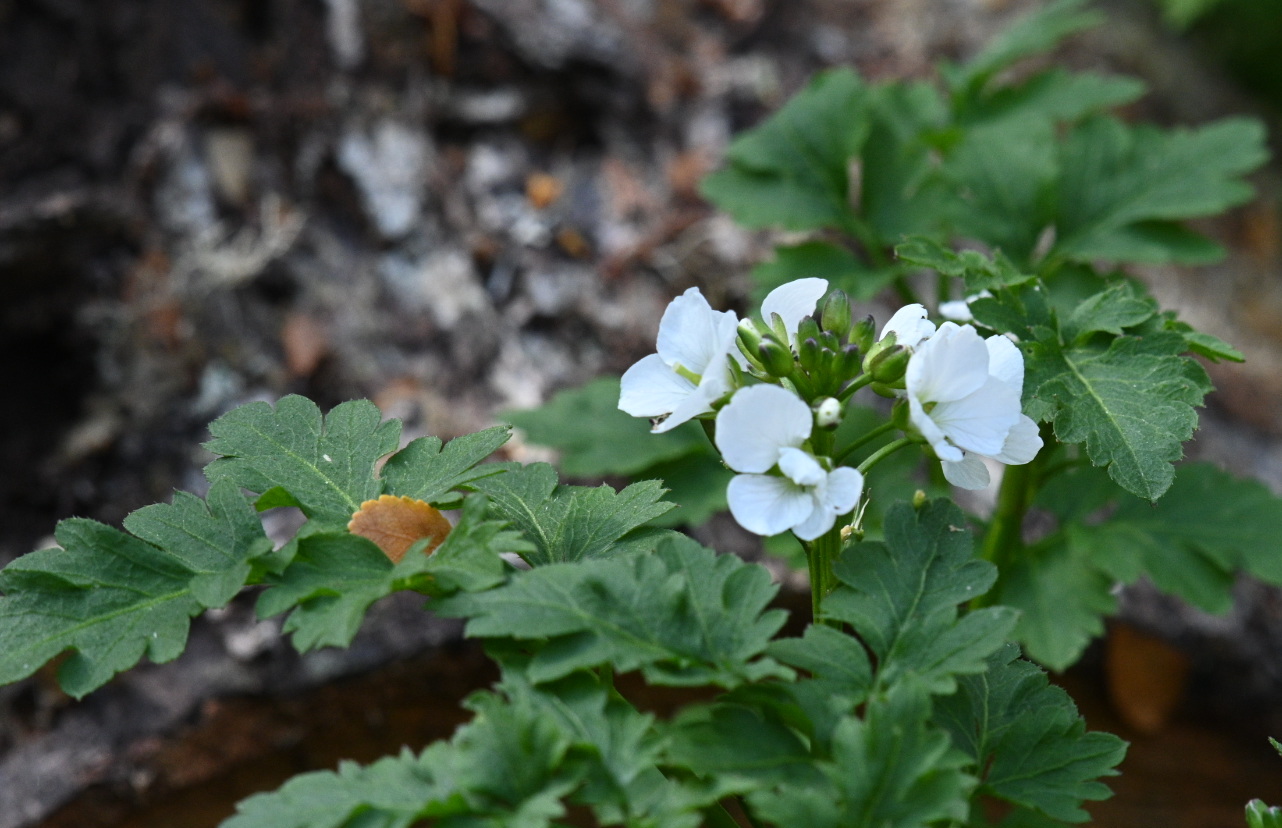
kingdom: Plantae
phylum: Tracheophyta
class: Magnoliopsida
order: Brassicales
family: Brassicaceae
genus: Cardamine
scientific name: Cardamine geraniifolia
